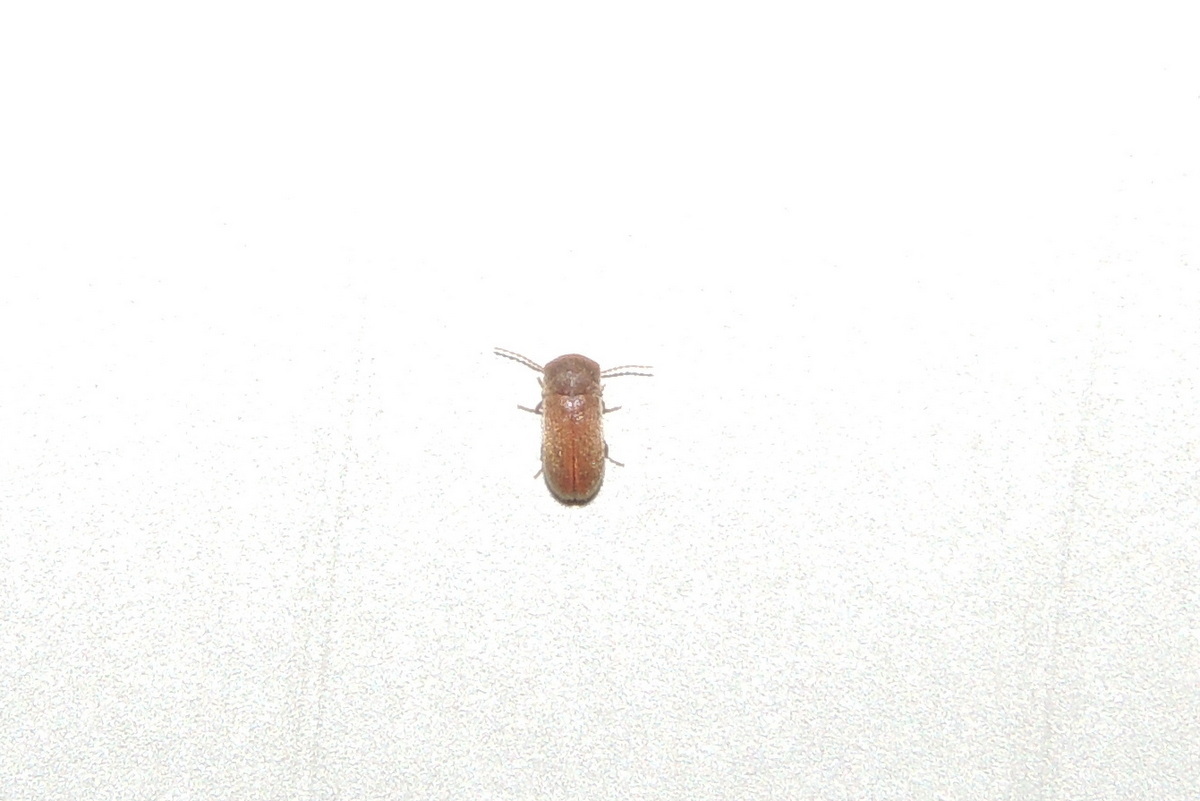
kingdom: Animalia
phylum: Arthropoda
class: Insecta
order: Coleoptera
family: Ptinidae
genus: Metholcus
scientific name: Metholcus
